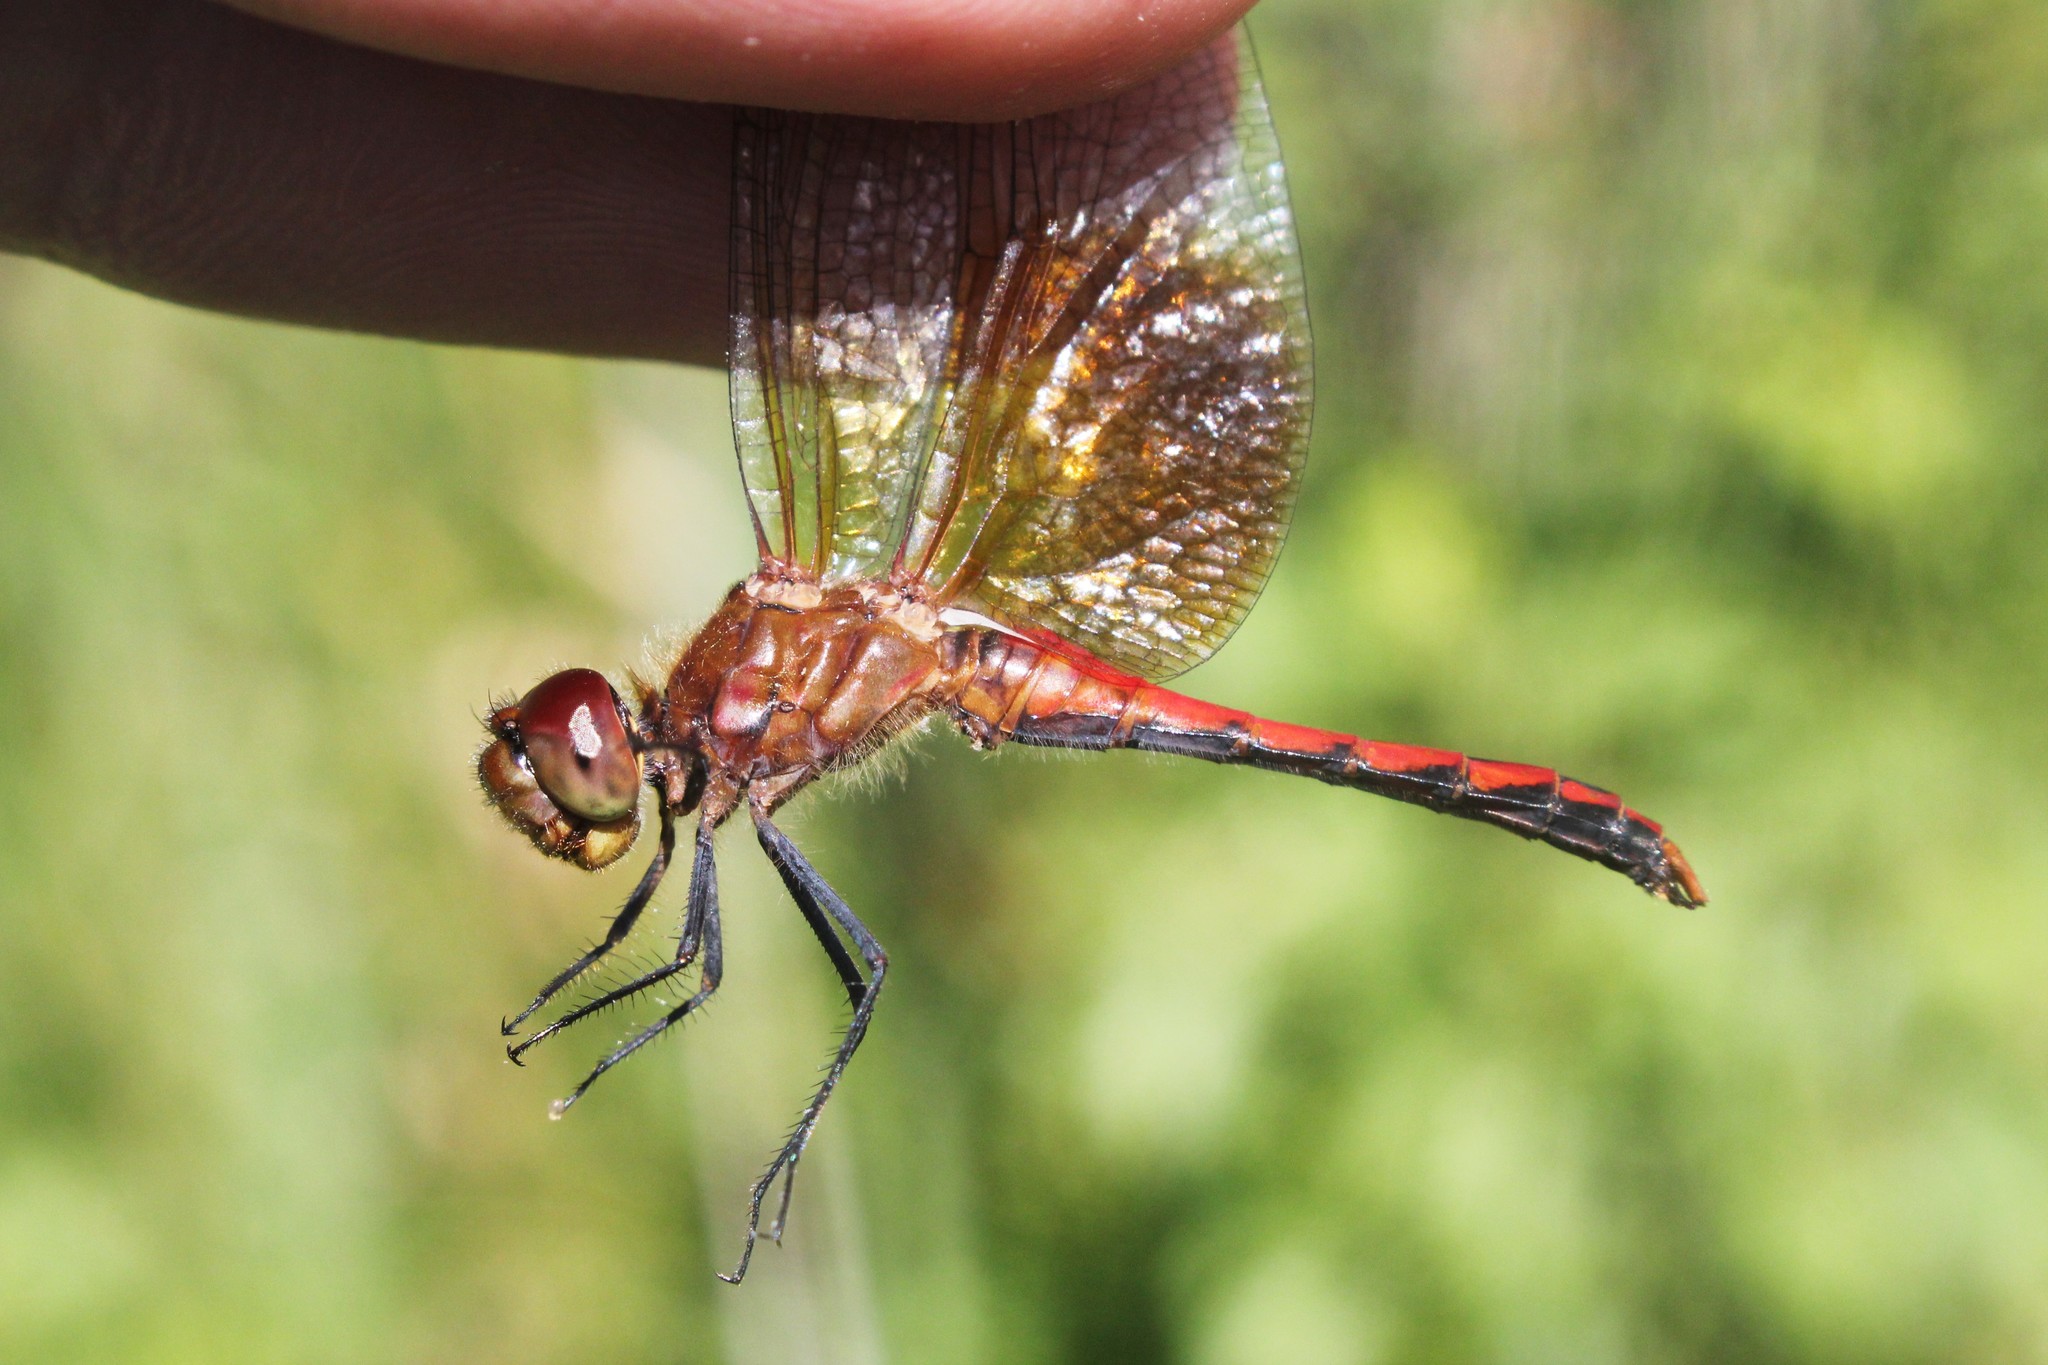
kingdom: Animalia
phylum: Arthropoda
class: Insecta
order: Odonata
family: Libellulidae
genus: Sympetrum
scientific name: Sympetrum semicinctum
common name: Band-winged meadowhawk
